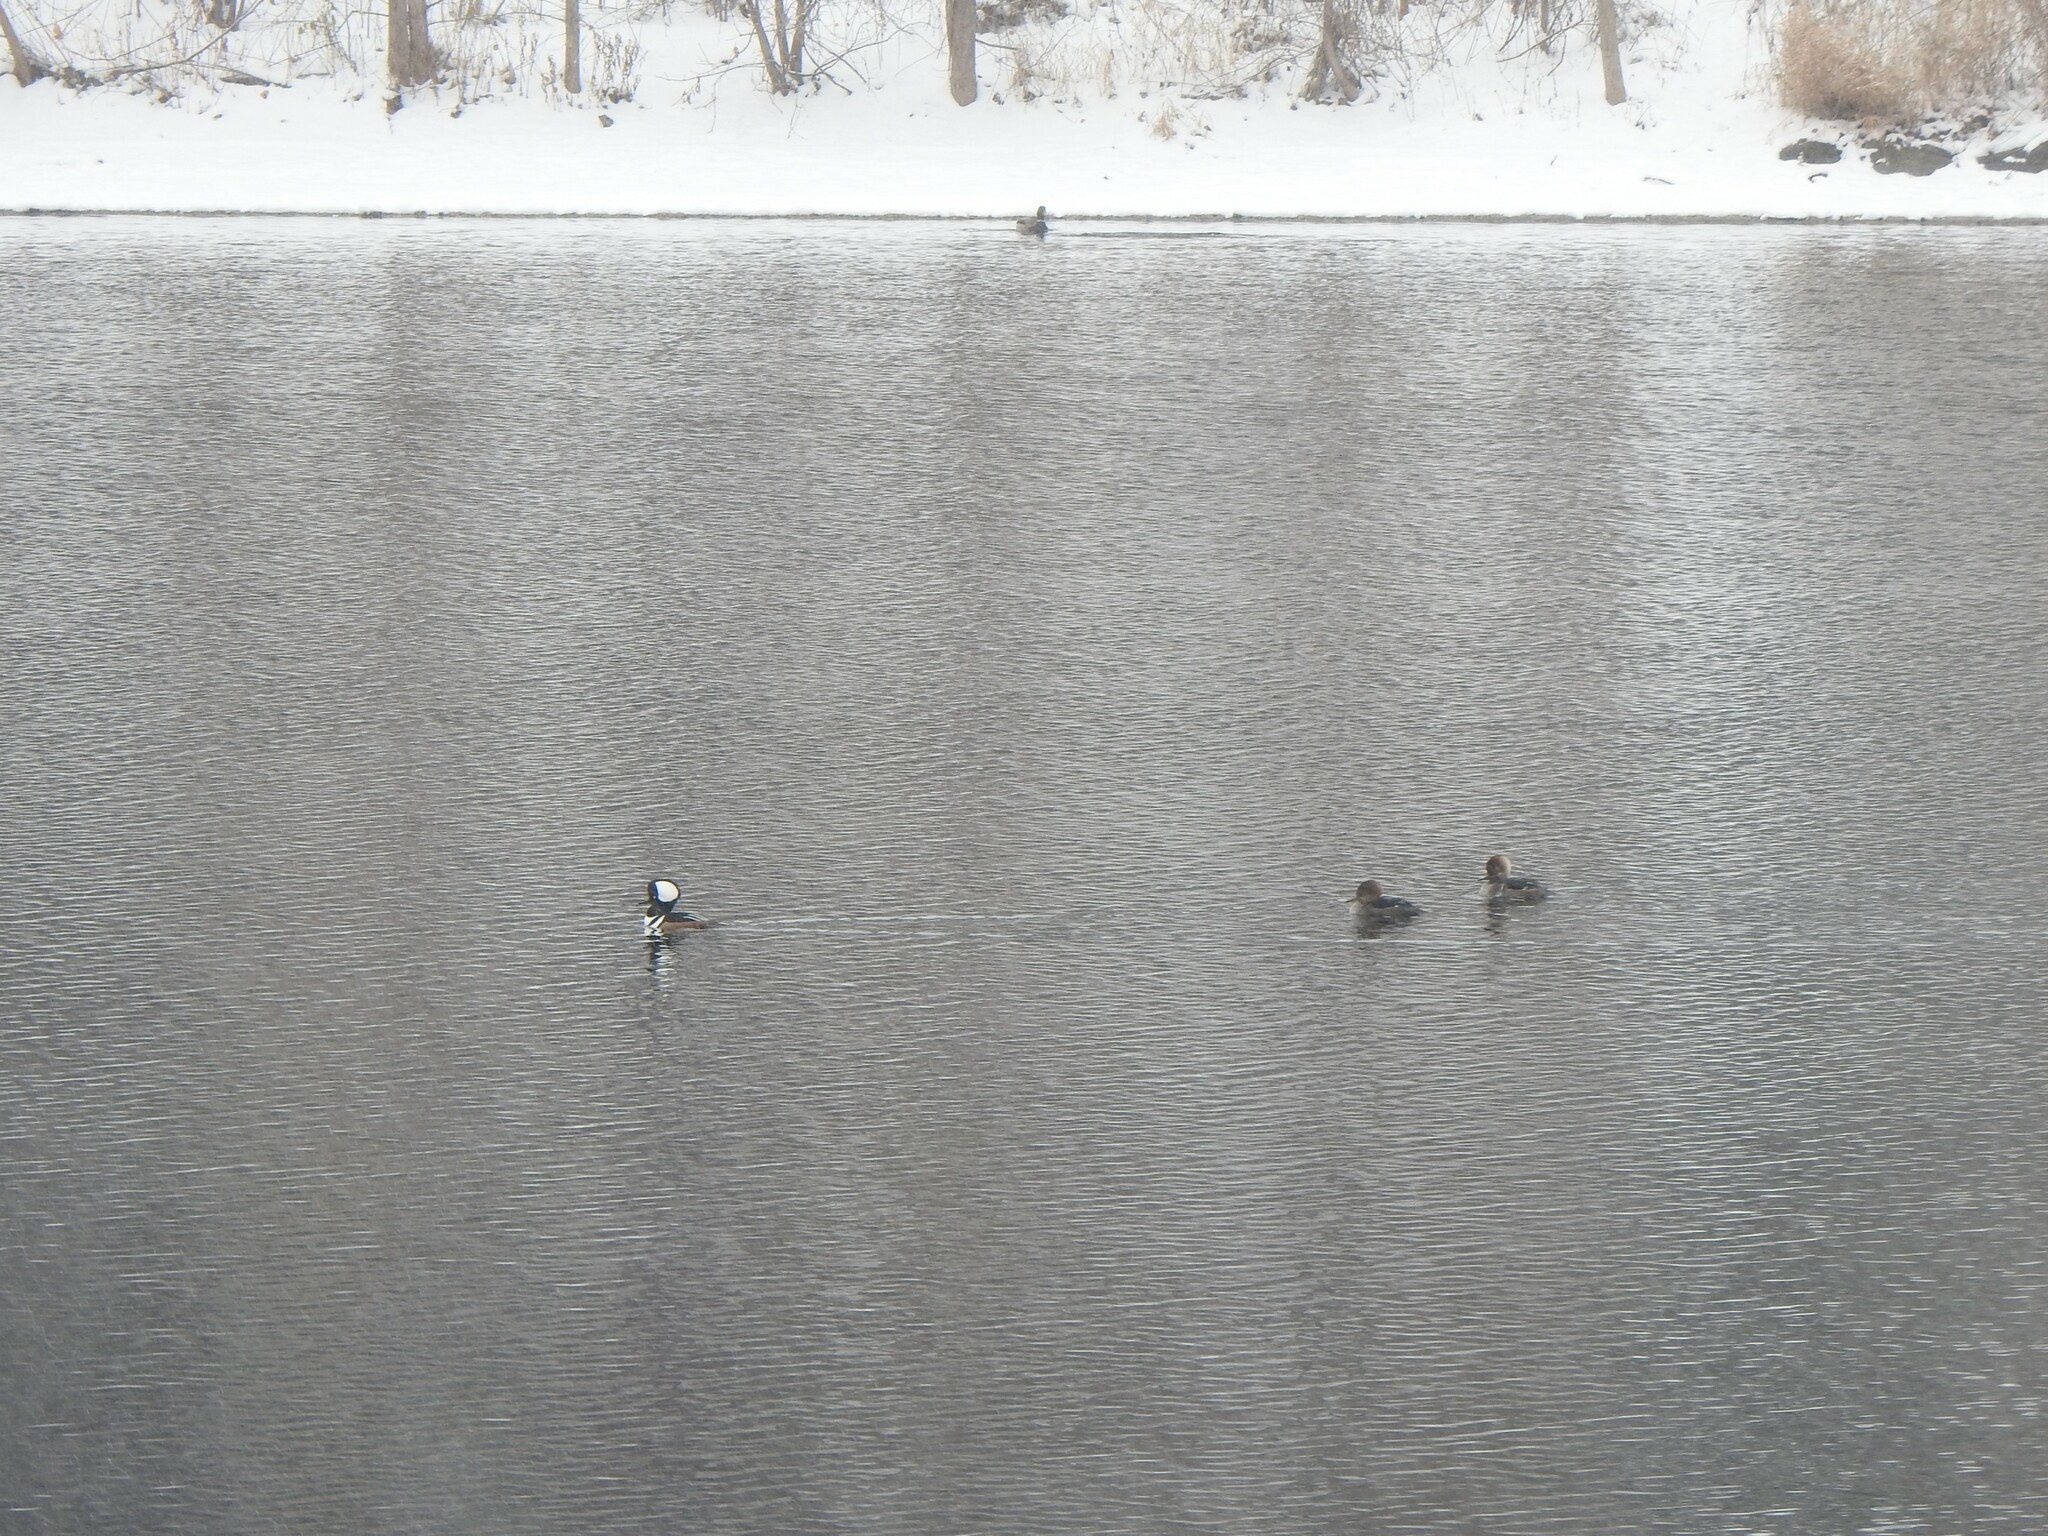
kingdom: Animalia
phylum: Chordata
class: Aves
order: Anseriformes
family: Anatidae
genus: Lophodytes
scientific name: Lophodytes cucullatus
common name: Hooded merganser
